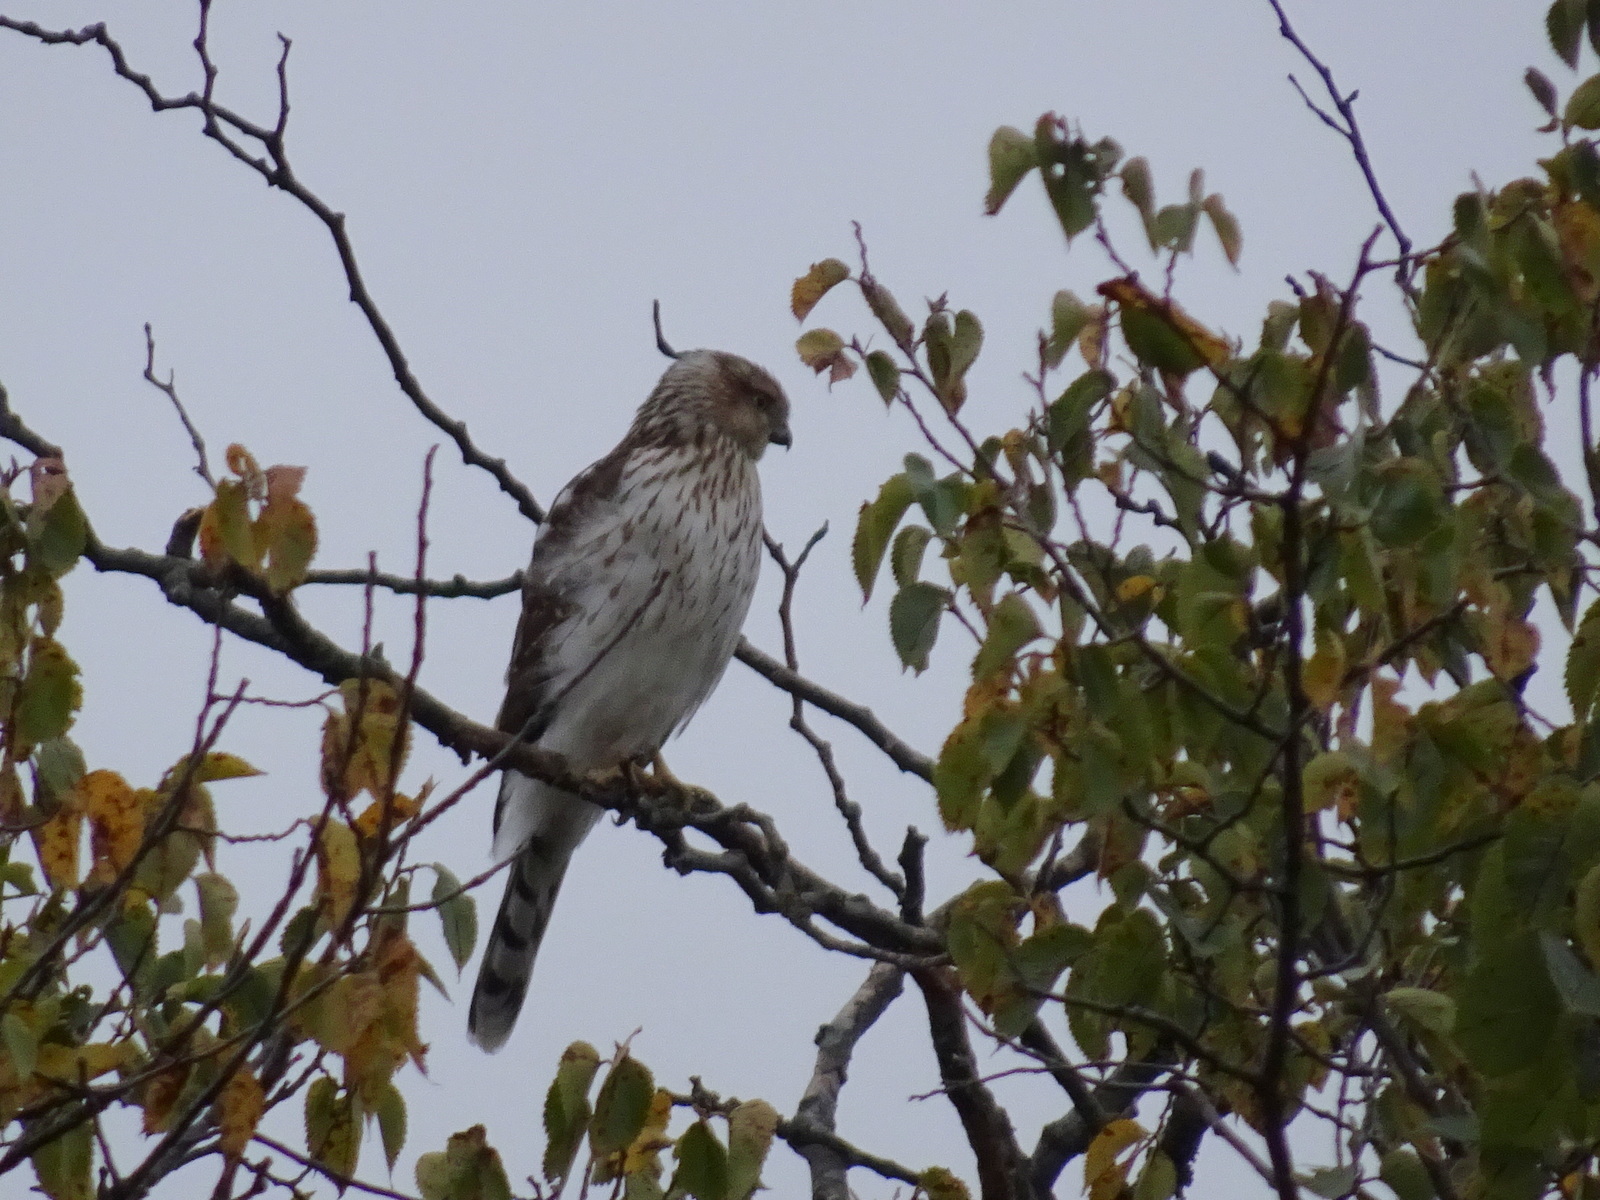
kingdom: Animalia
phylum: Chordata
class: Aves
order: Accipitriformes
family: Accipitridae
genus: Accipiter
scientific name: Accipiter cooperii
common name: Cooper's hawk
